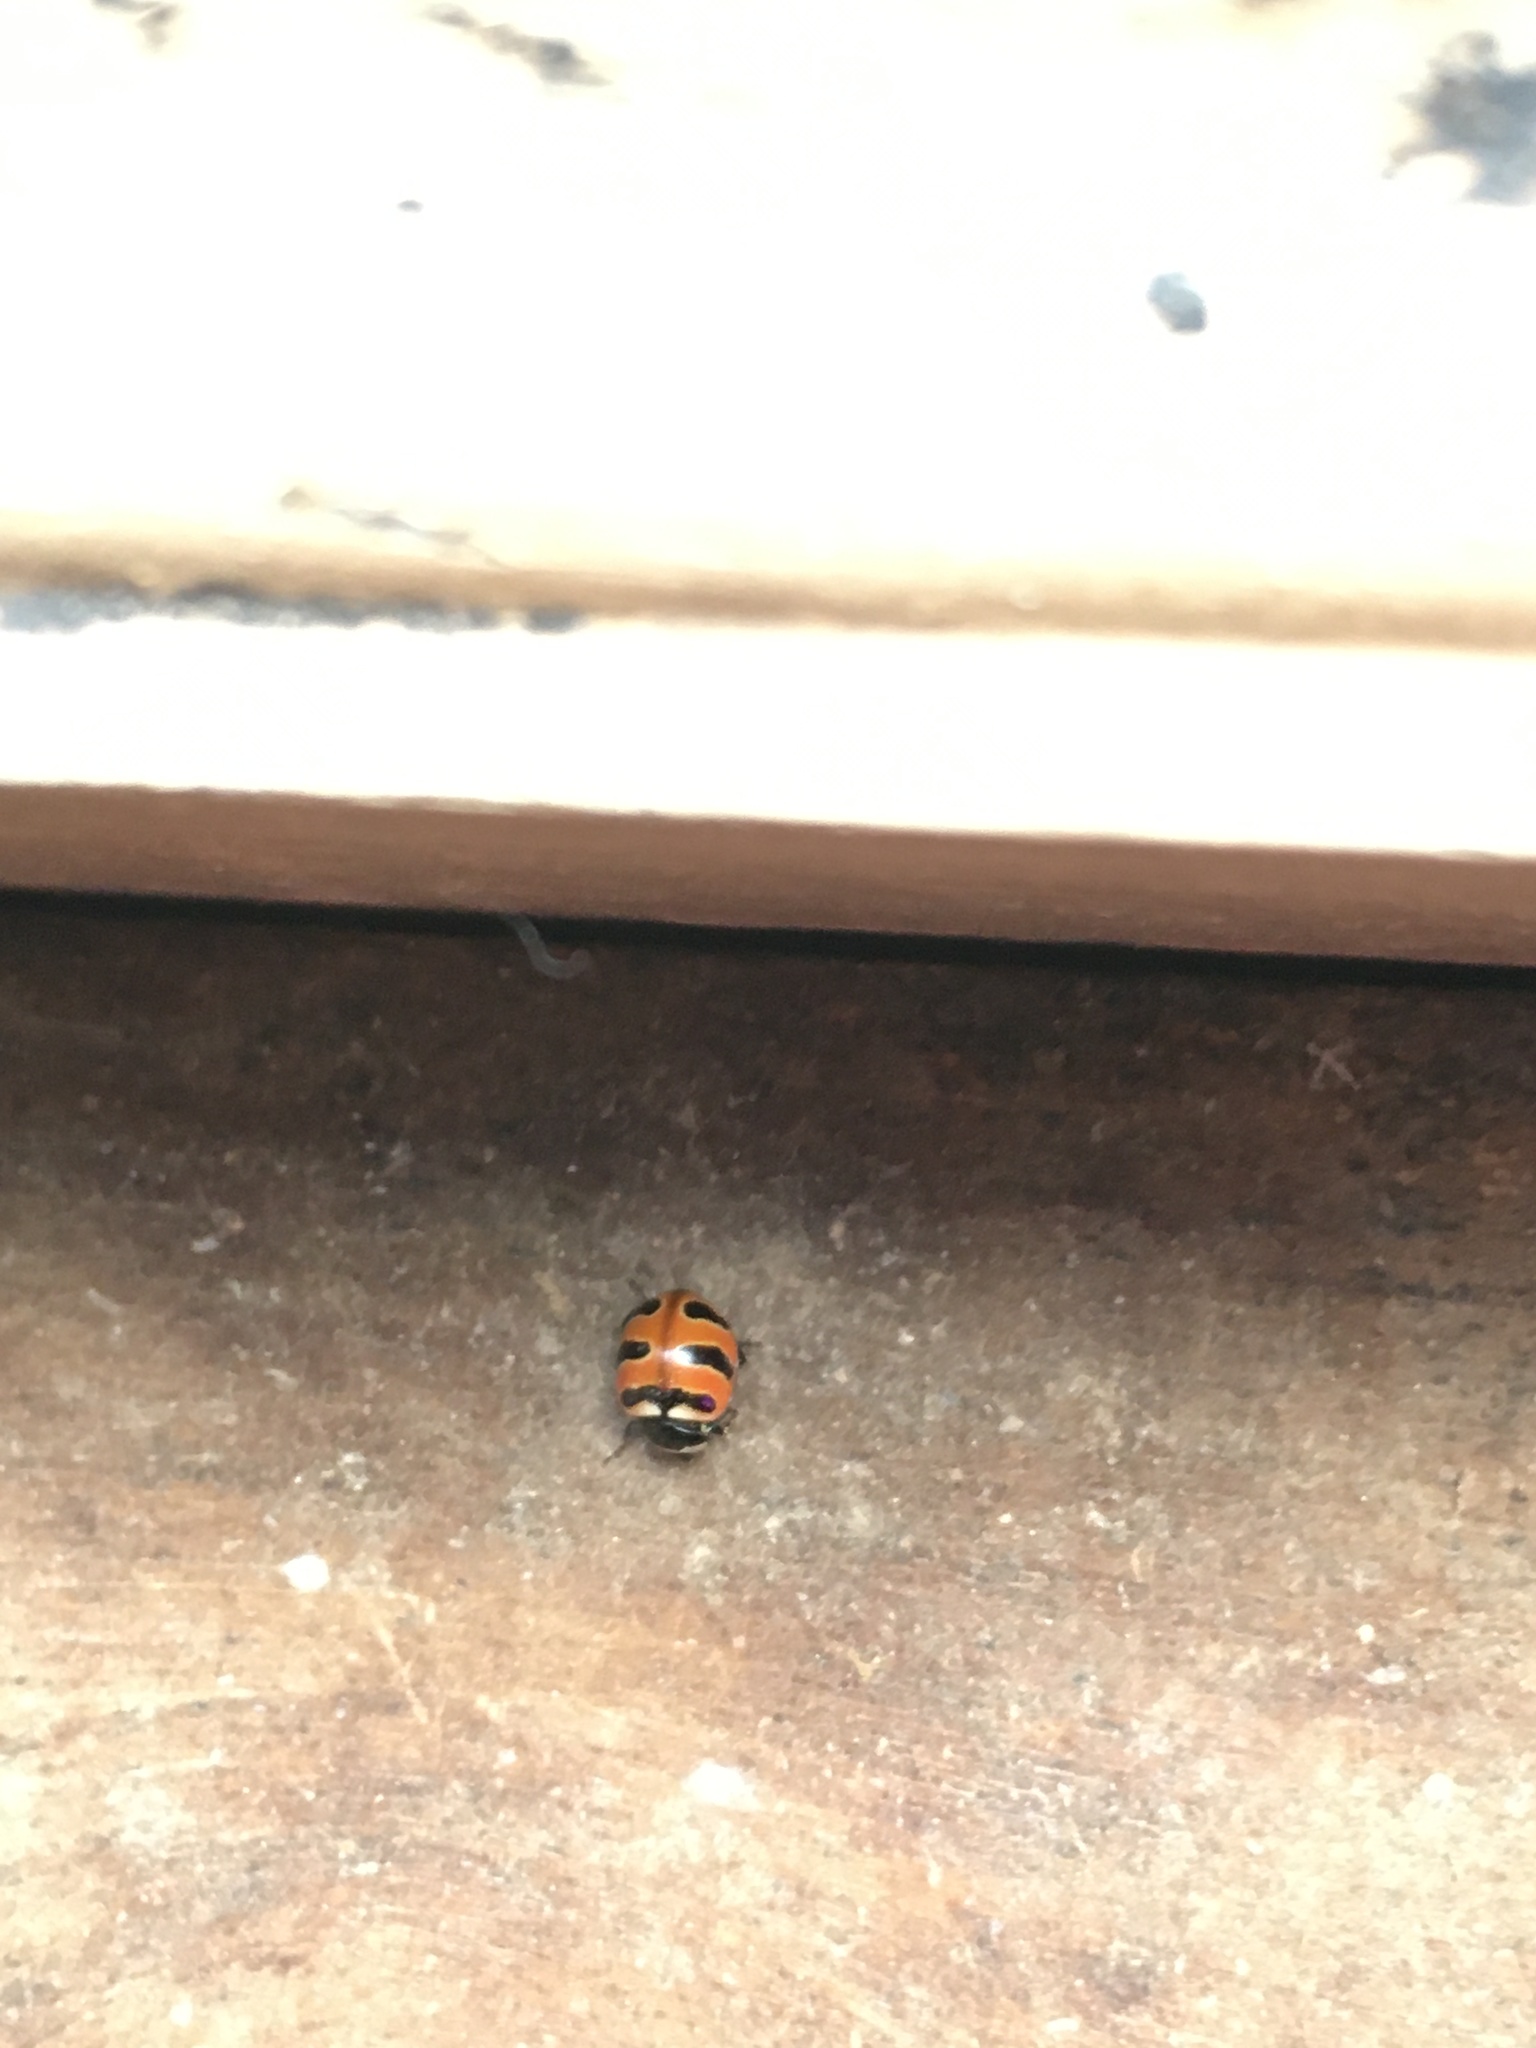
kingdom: Animalia
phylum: Arthropoda
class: Insecta
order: Coleoptera
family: Coccinellidae
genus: Coccinella
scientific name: Coccinella trifasciata
